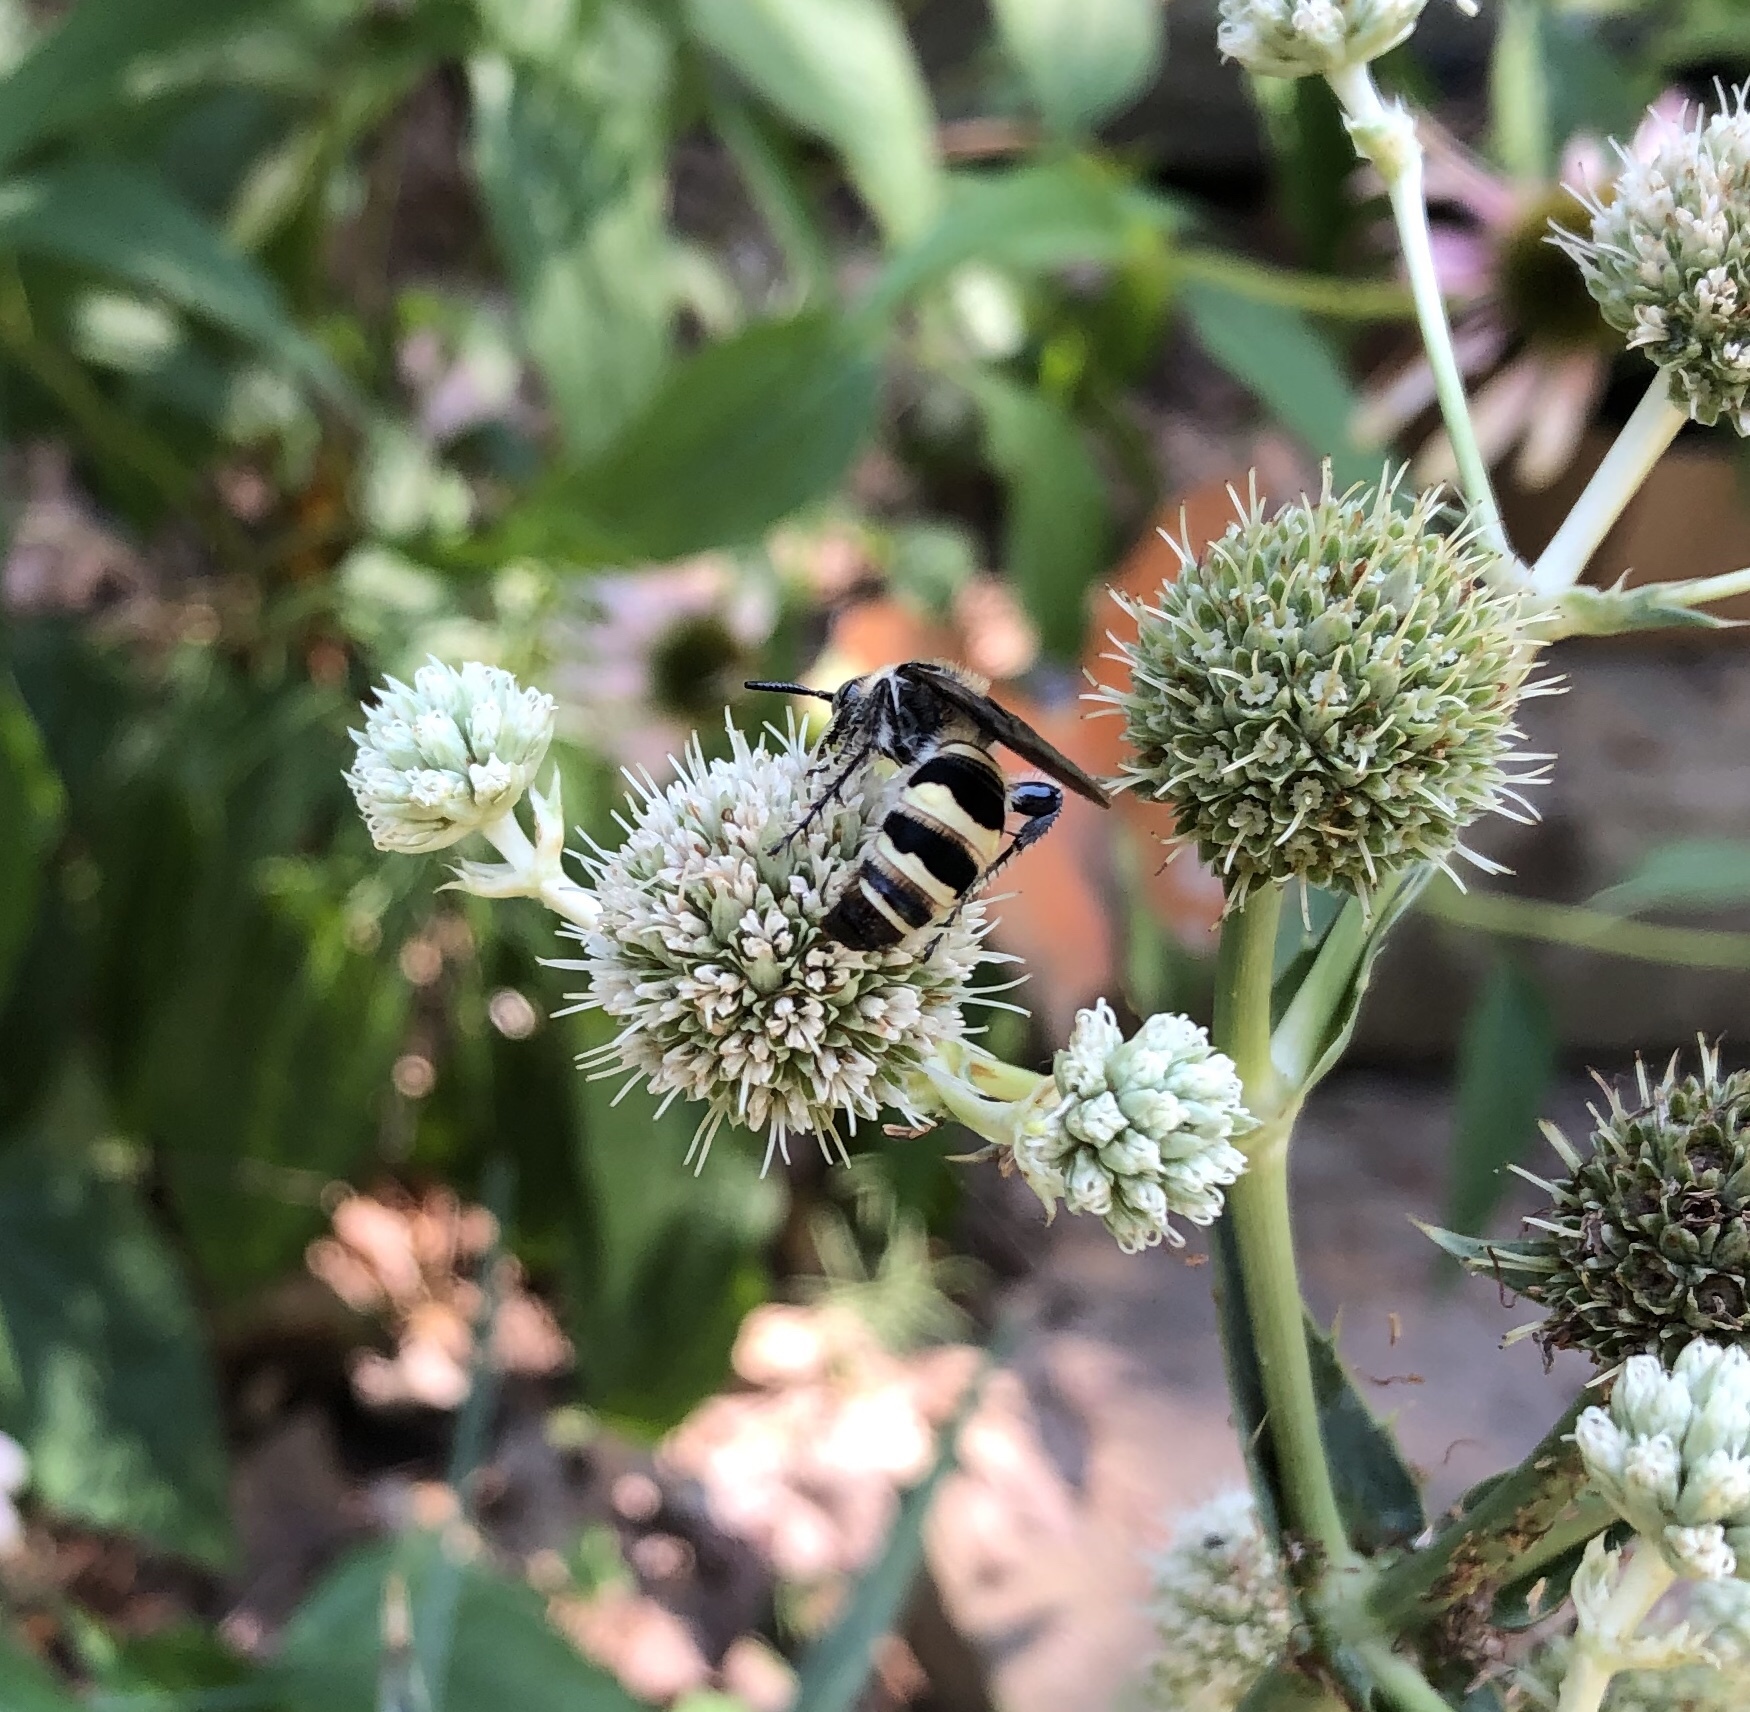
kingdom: Animalia
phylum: Arthropoda
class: Insecta
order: Hymenoptera
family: Scoliidae
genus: Dielis
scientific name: Dielis
